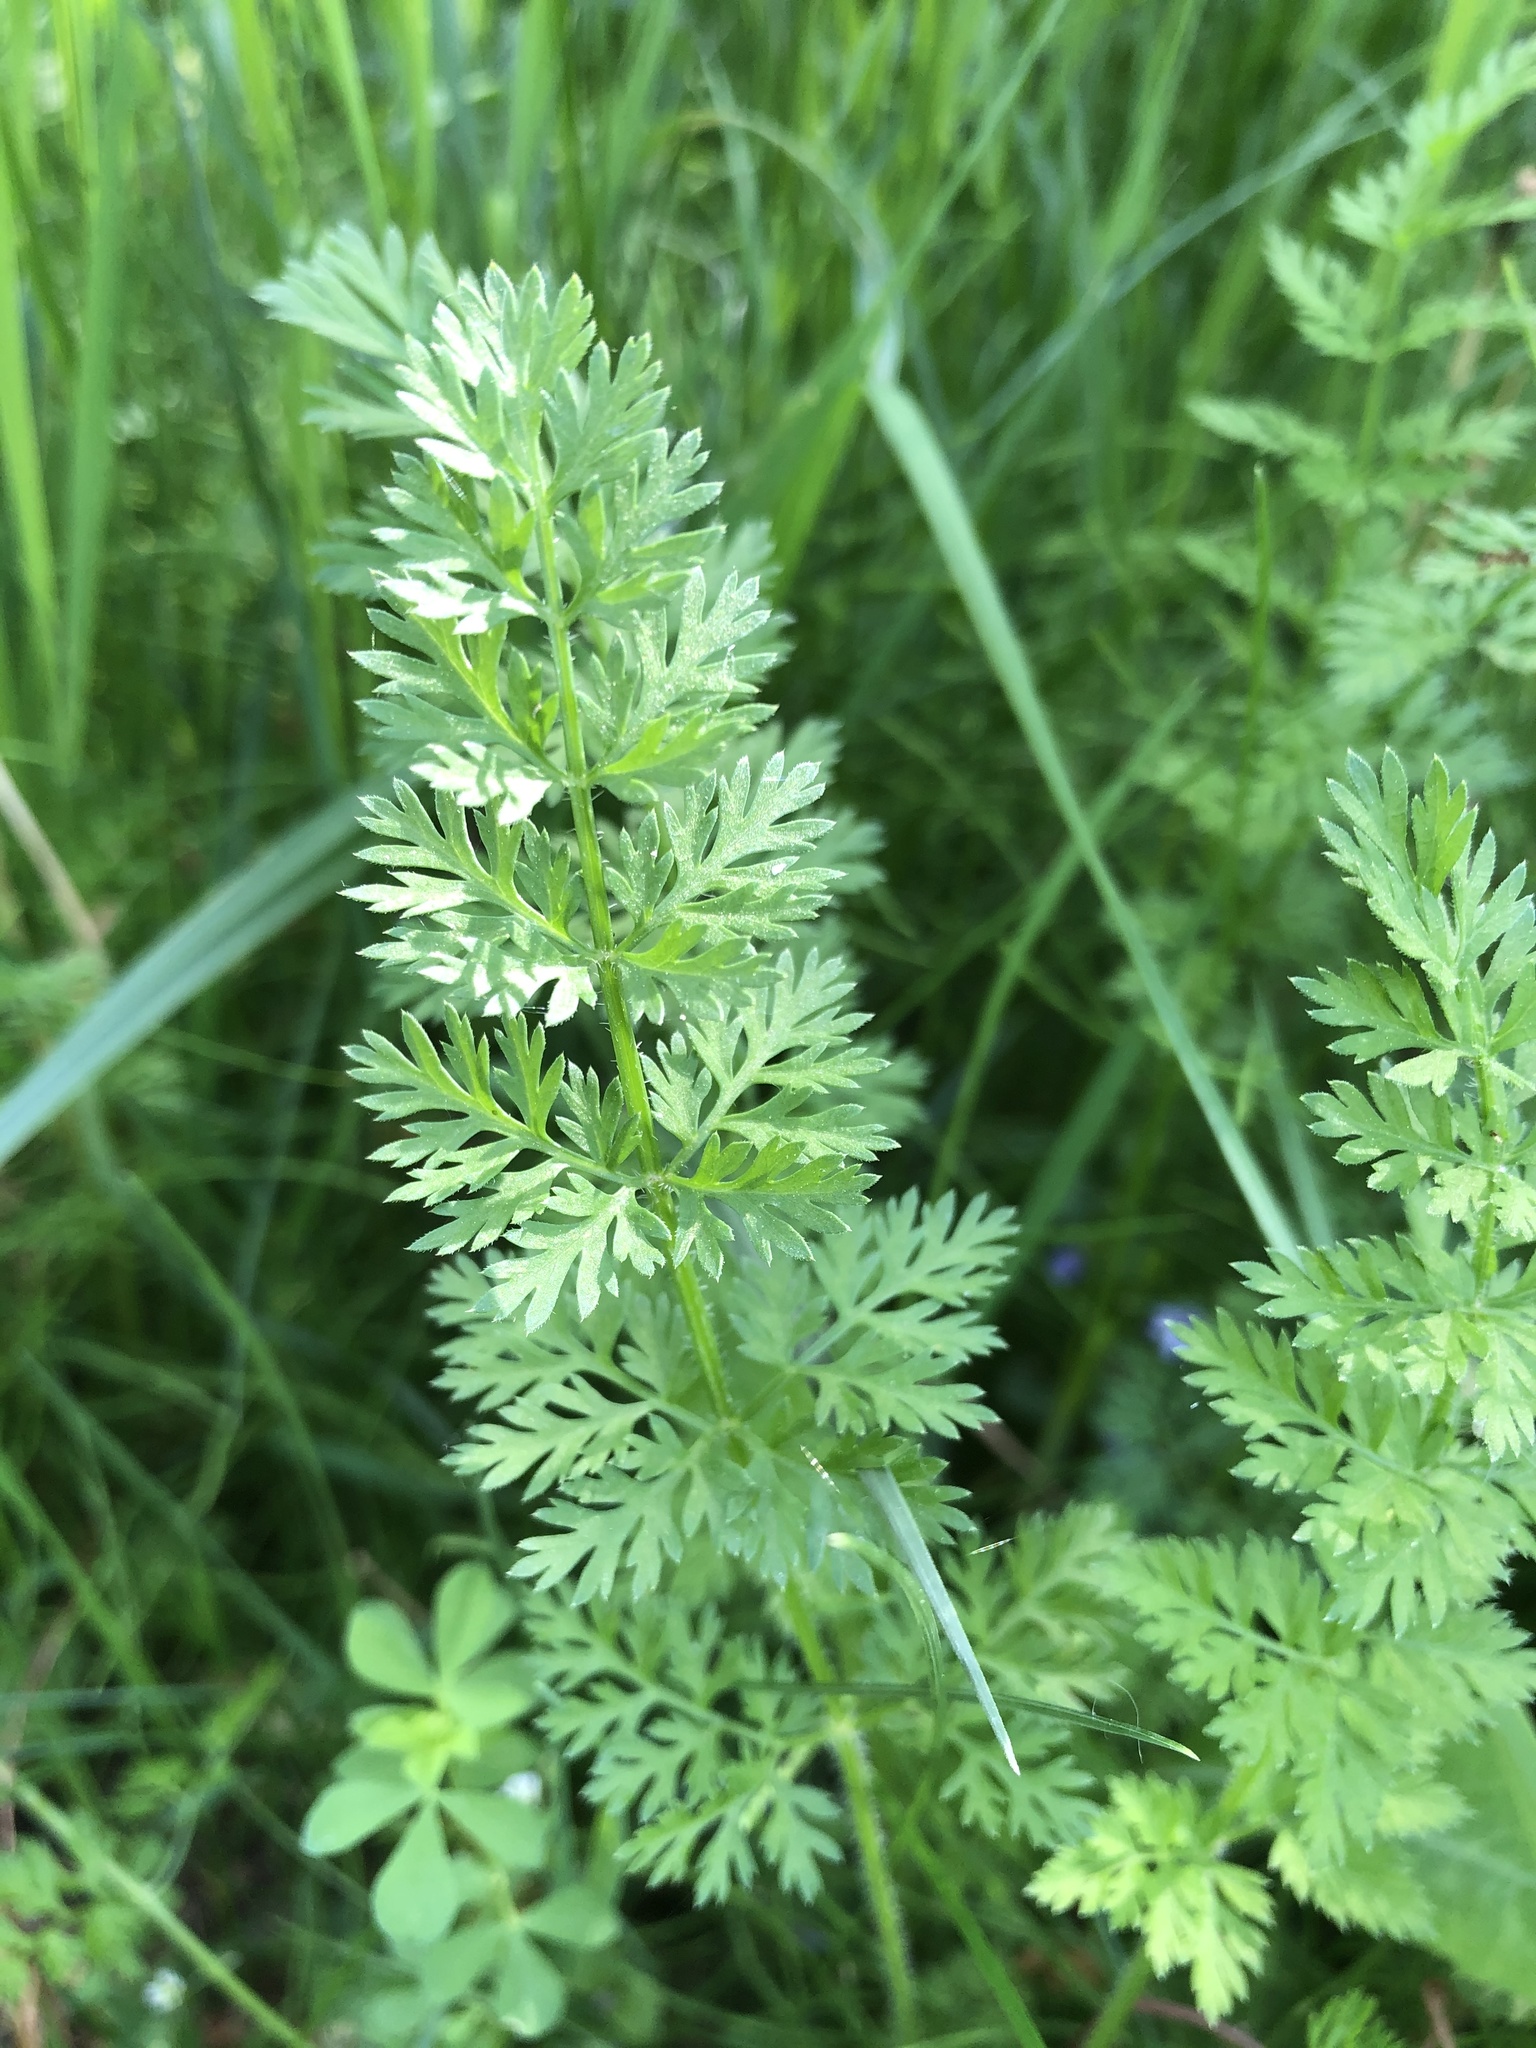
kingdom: Plantae
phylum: Tracheophyta
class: Magnoliopsida
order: Apiales
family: Apiaceae
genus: Daucus
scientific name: Daucus carota
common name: Wild carrot
